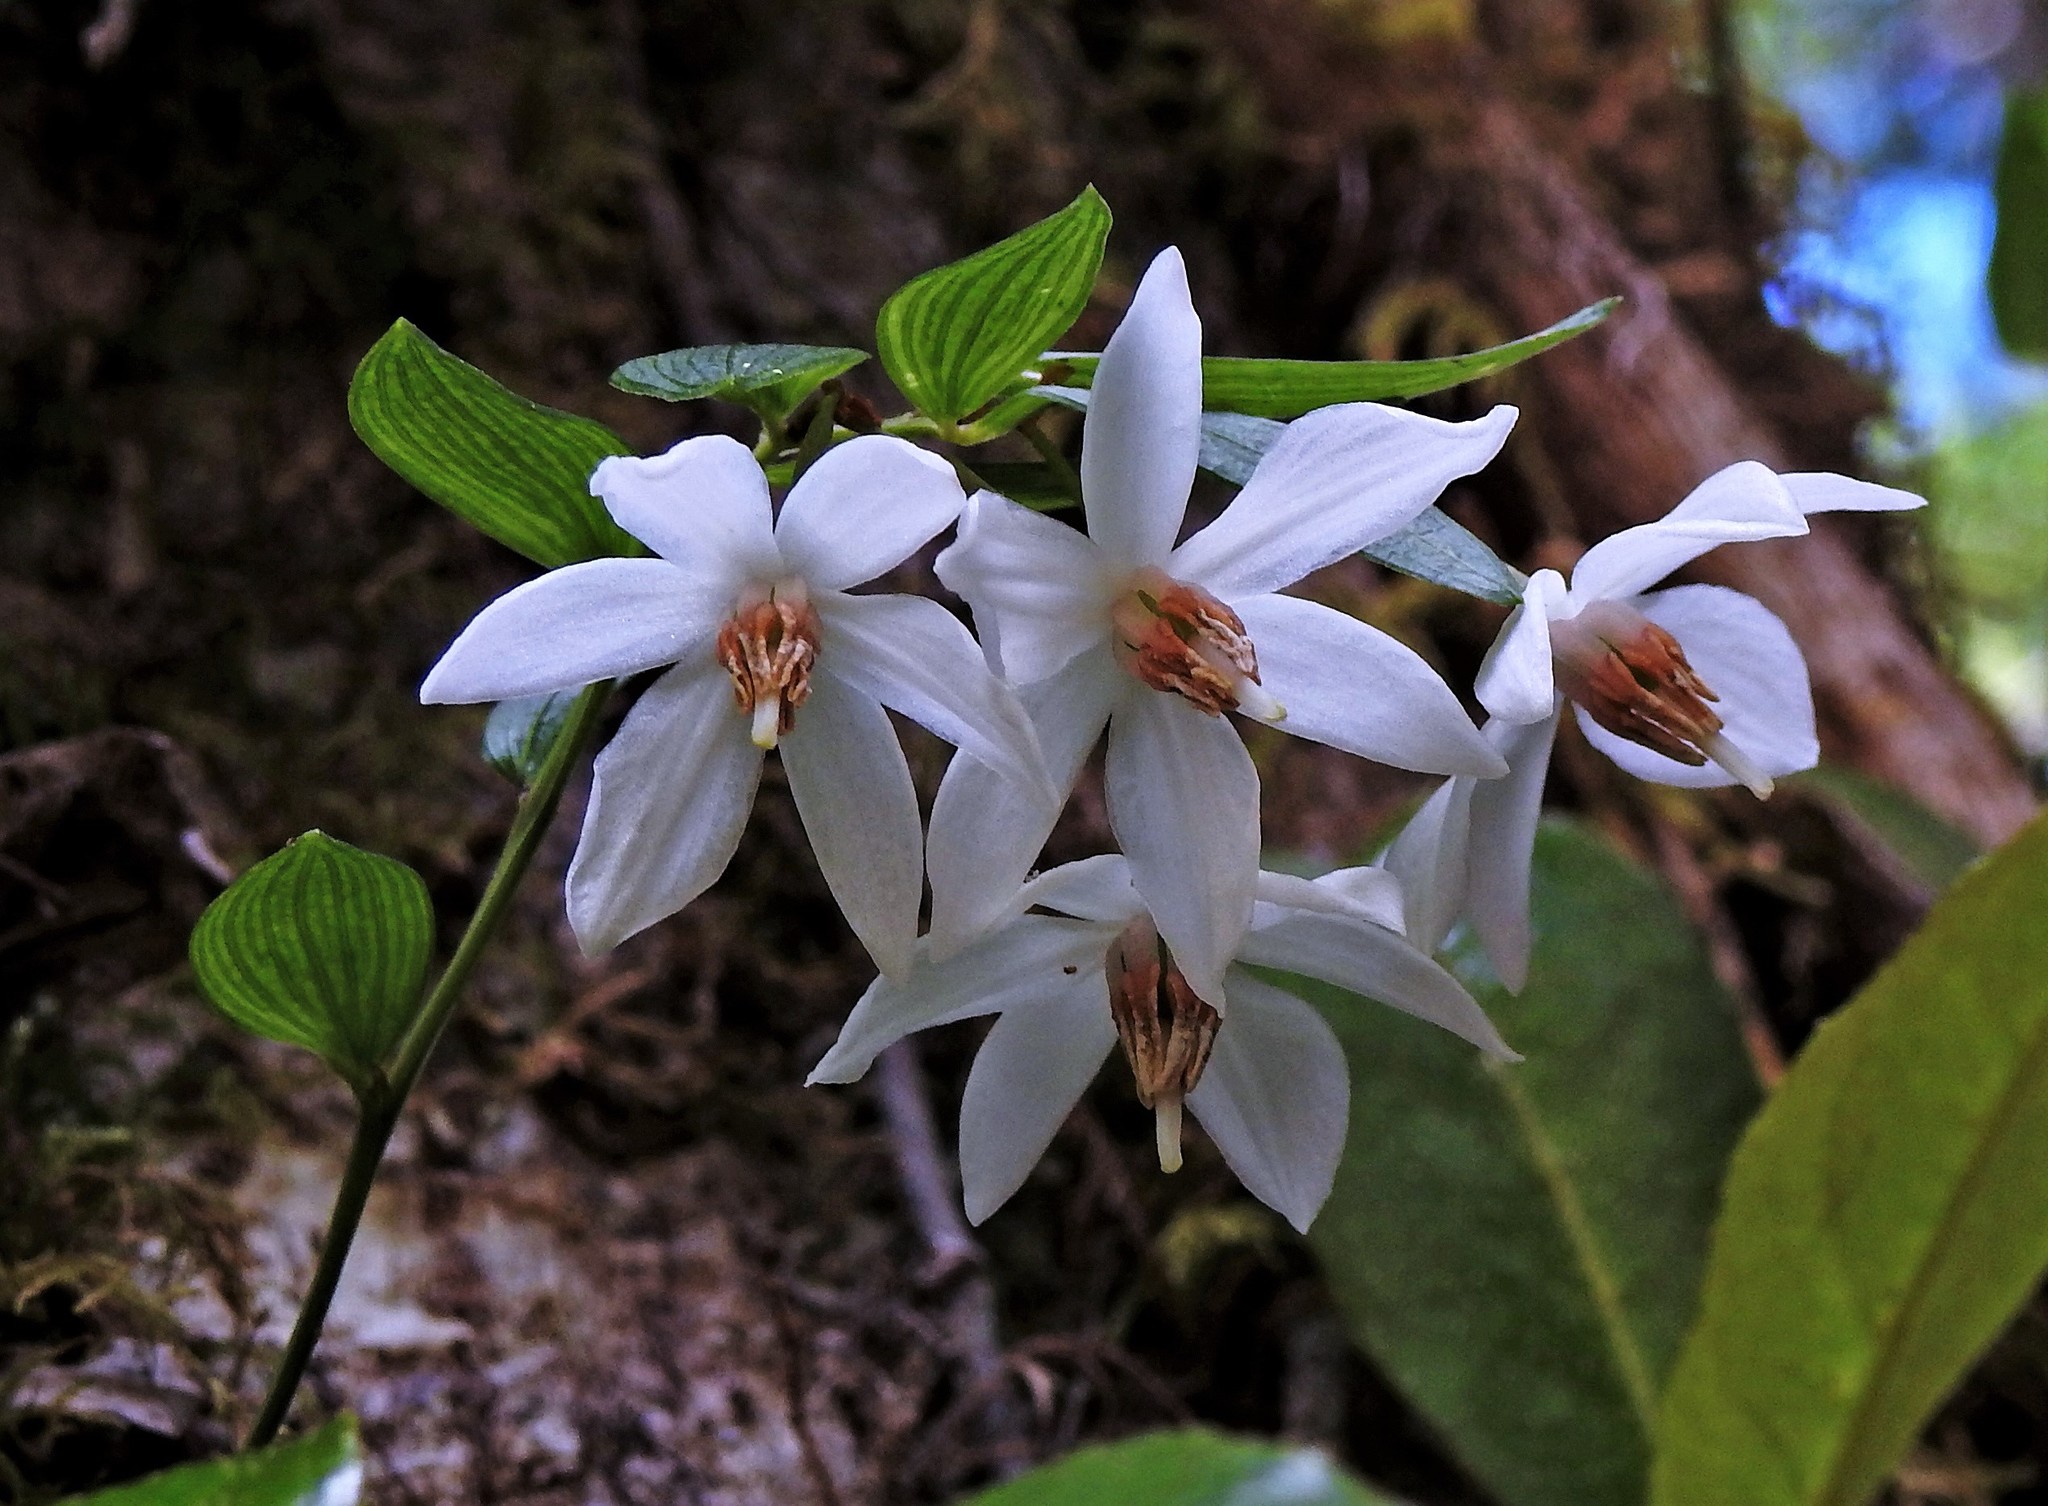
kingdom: Plantae
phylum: Tracheophyta
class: Liliopsida
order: Liliales
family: Alstroemeriaceae
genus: Luzuriaga
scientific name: Luzuriaga radicans
